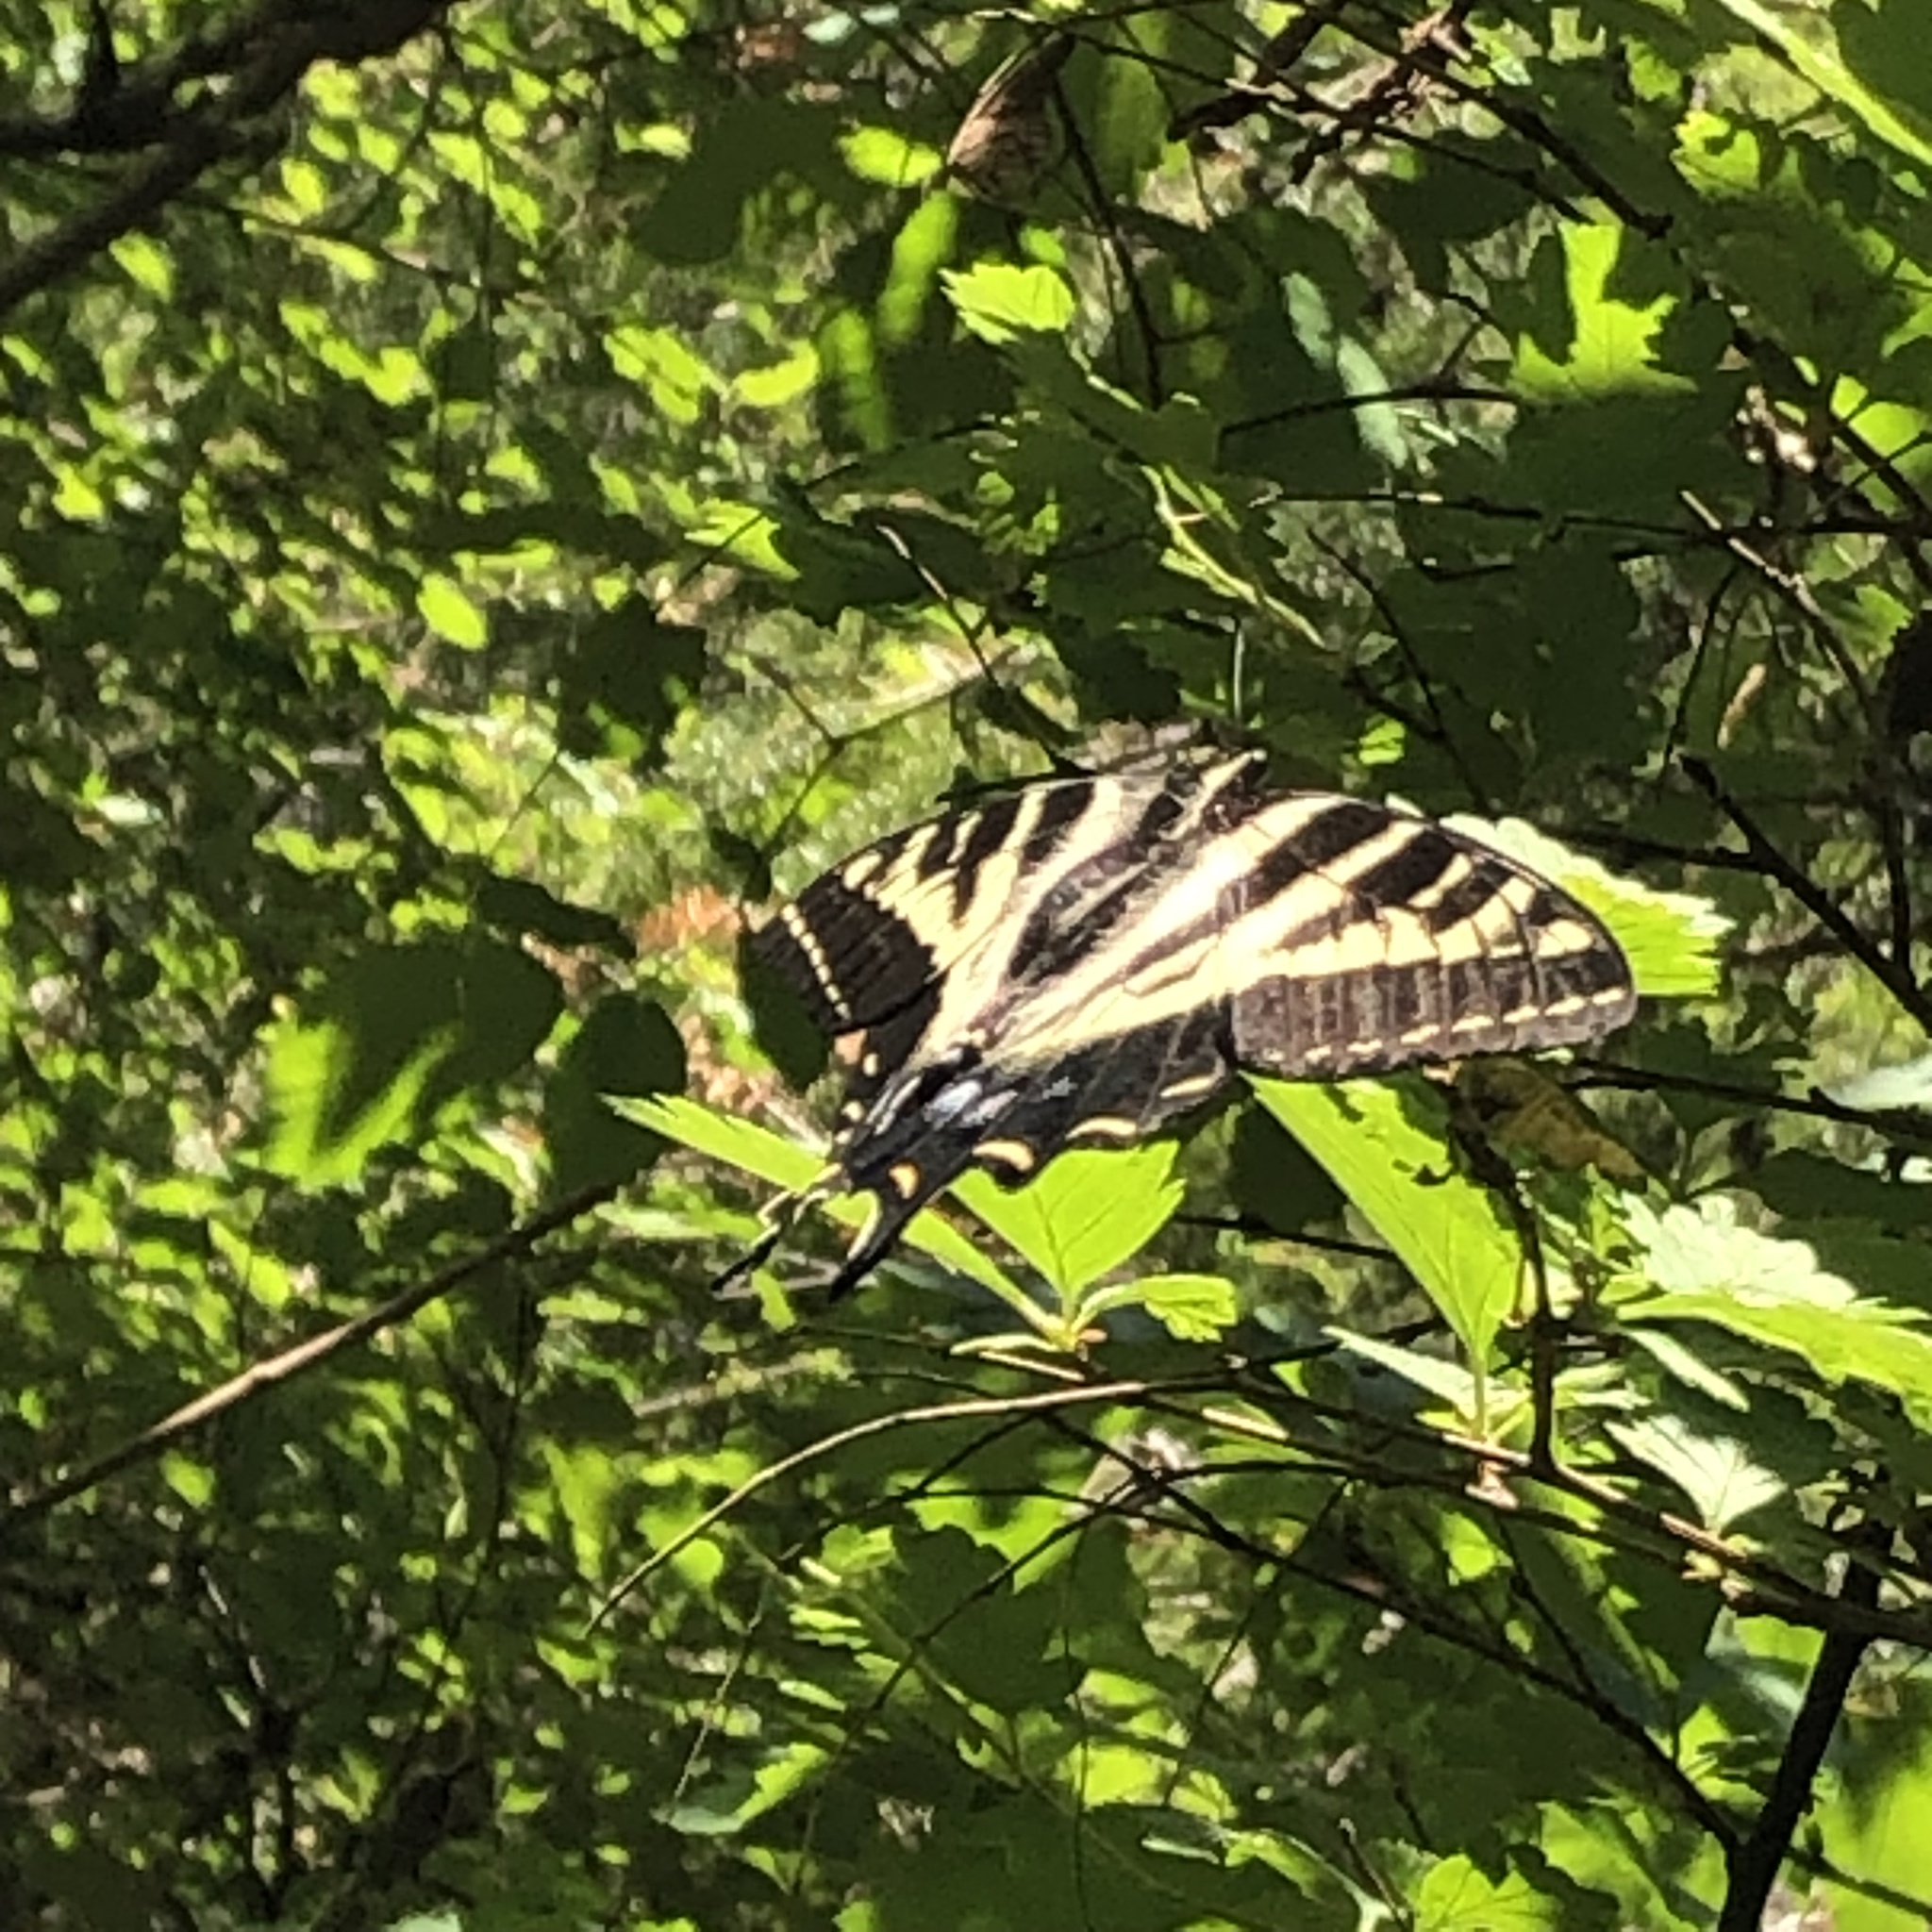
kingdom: Animalia
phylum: Arthropoda
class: Insecta
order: Lepidoptera
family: Papilionidae
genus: Papilio
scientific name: Papilio rutulus
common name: Western tiger swallowtail
